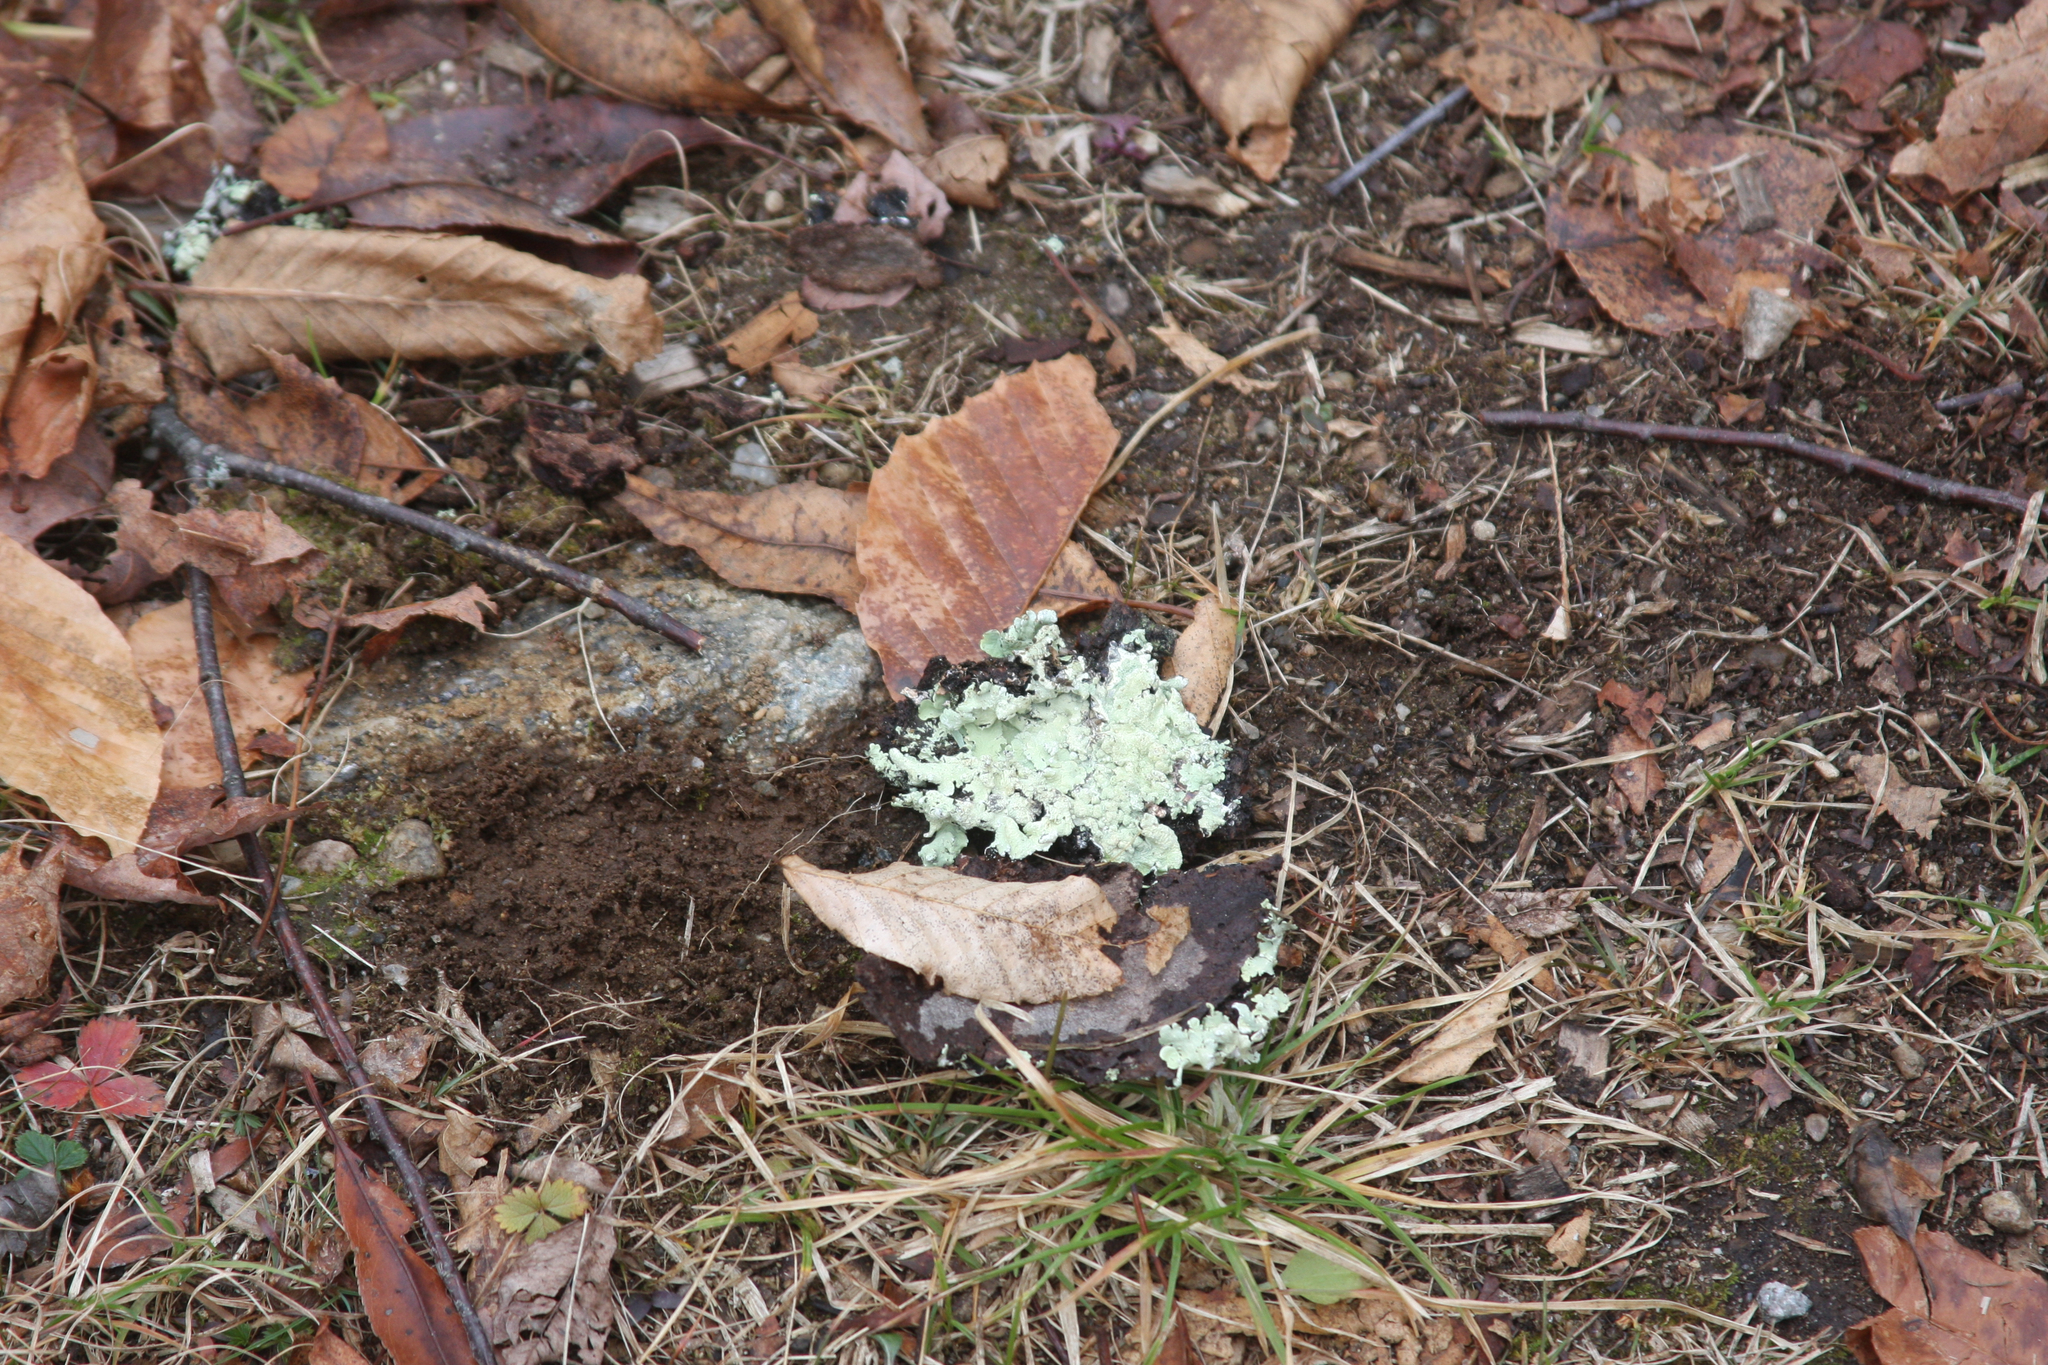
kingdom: Plantae
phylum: Tracheophyta
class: Magnoliopsida
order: Fagales
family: Fagaceae
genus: Fagus
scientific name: Fagus grandifolia
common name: American beech
